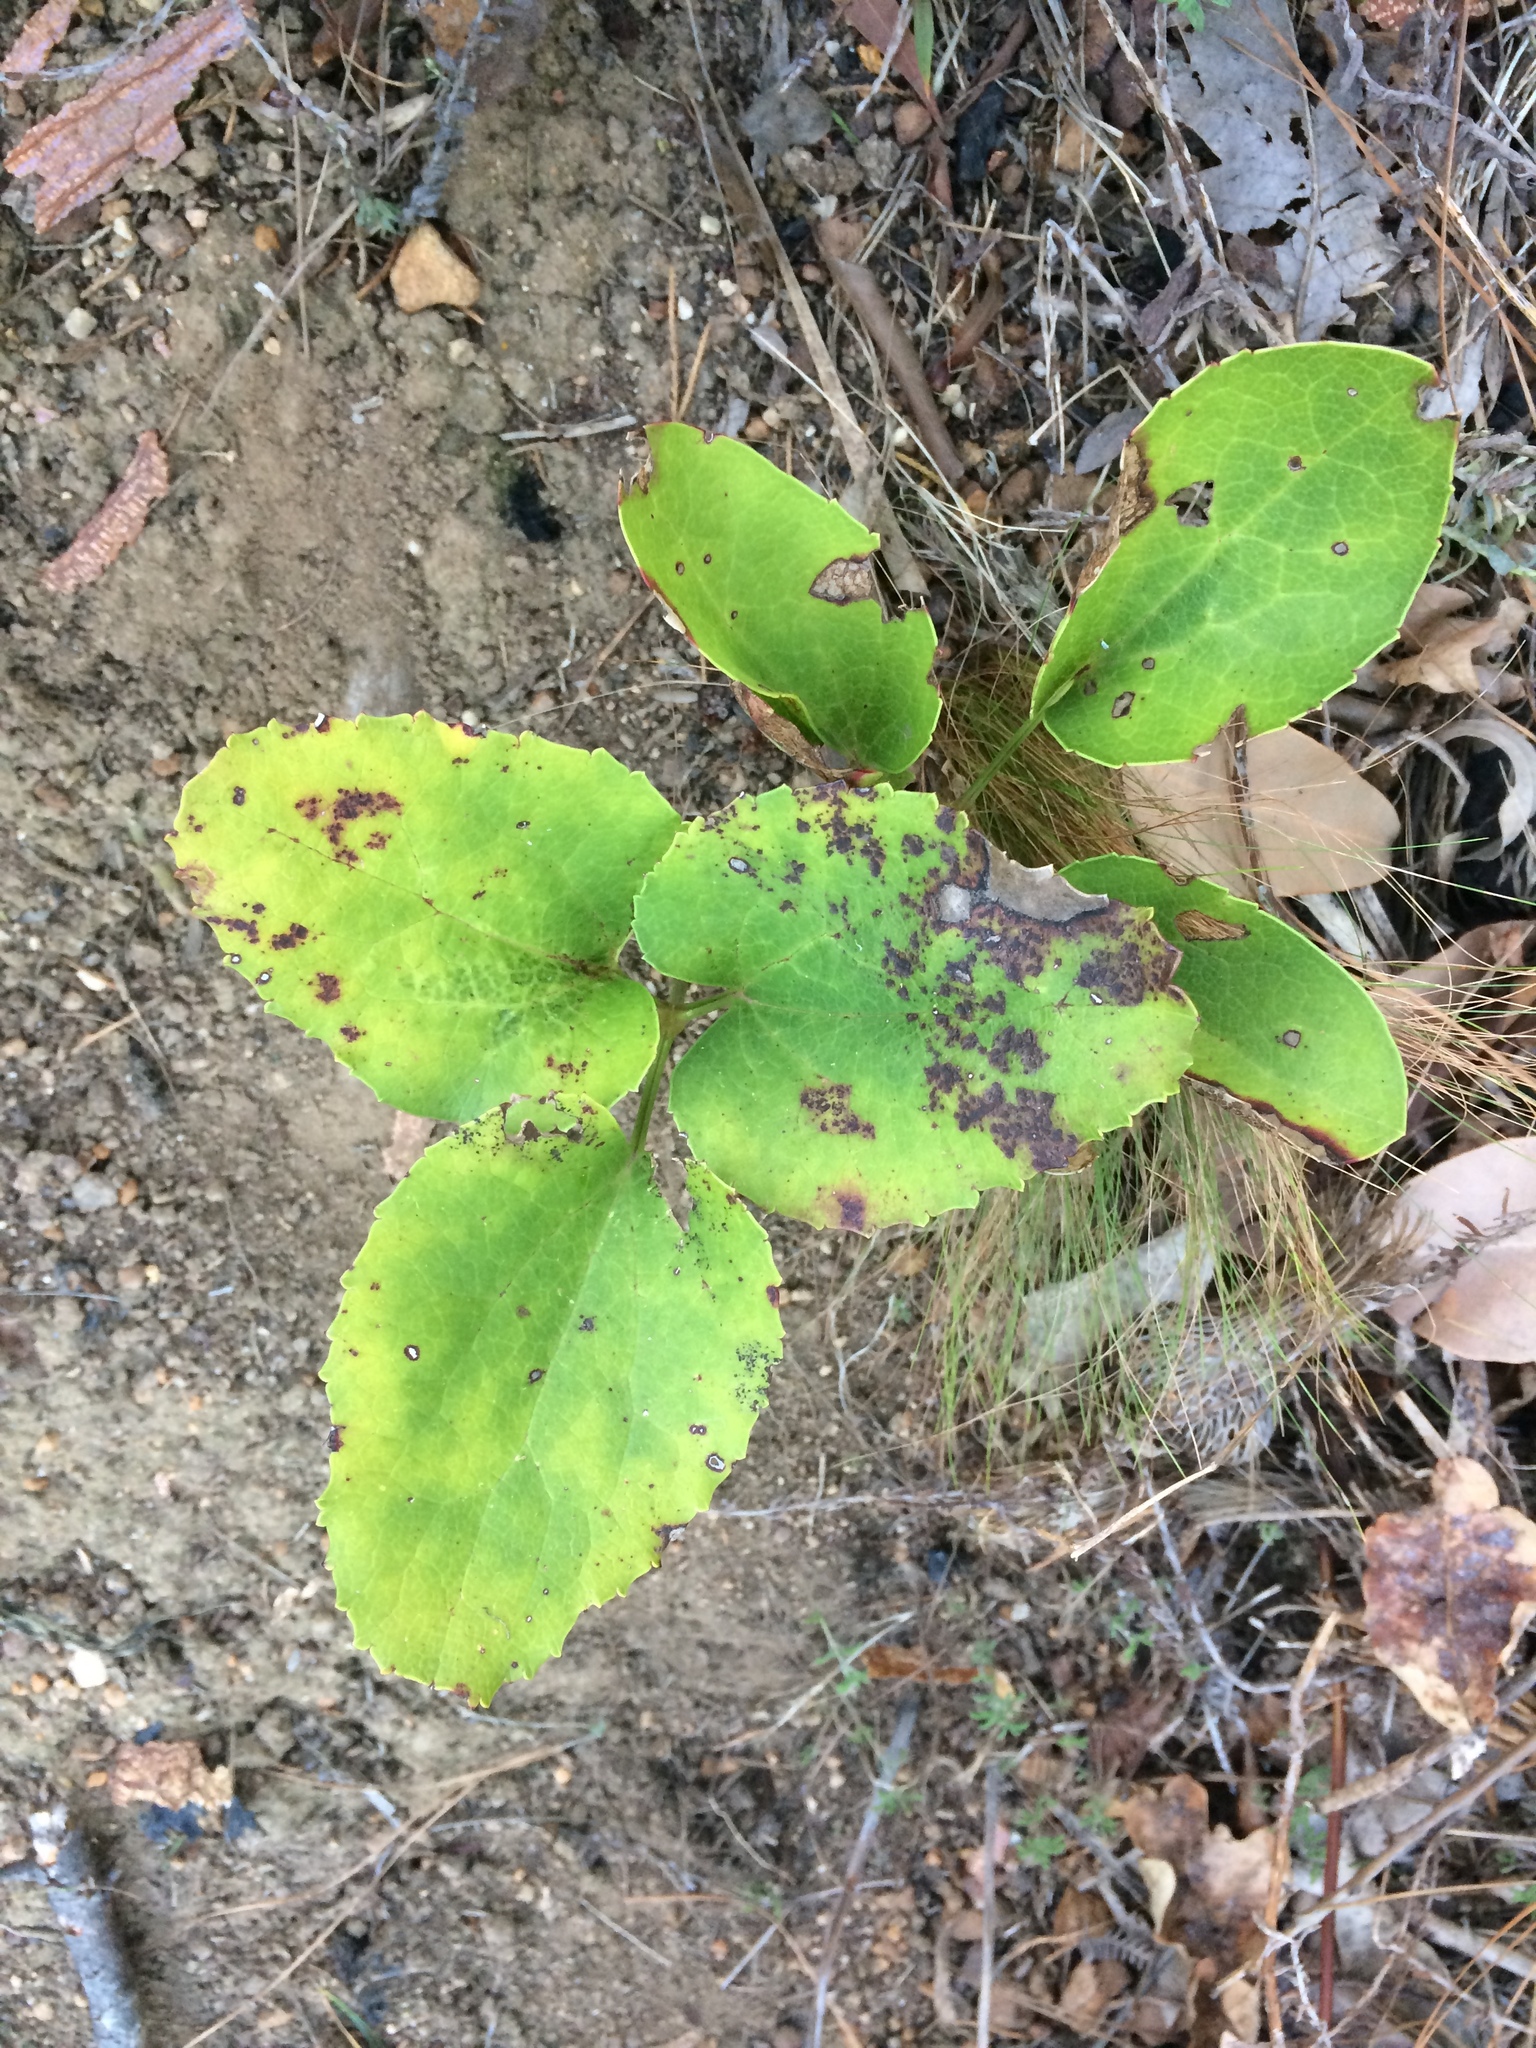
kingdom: Plantae
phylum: Tracheophyta
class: Magnoliopsida
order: Ranunculales
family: Ranunculaceae
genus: Knowltonia
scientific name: Knowltonia vesicatoria
